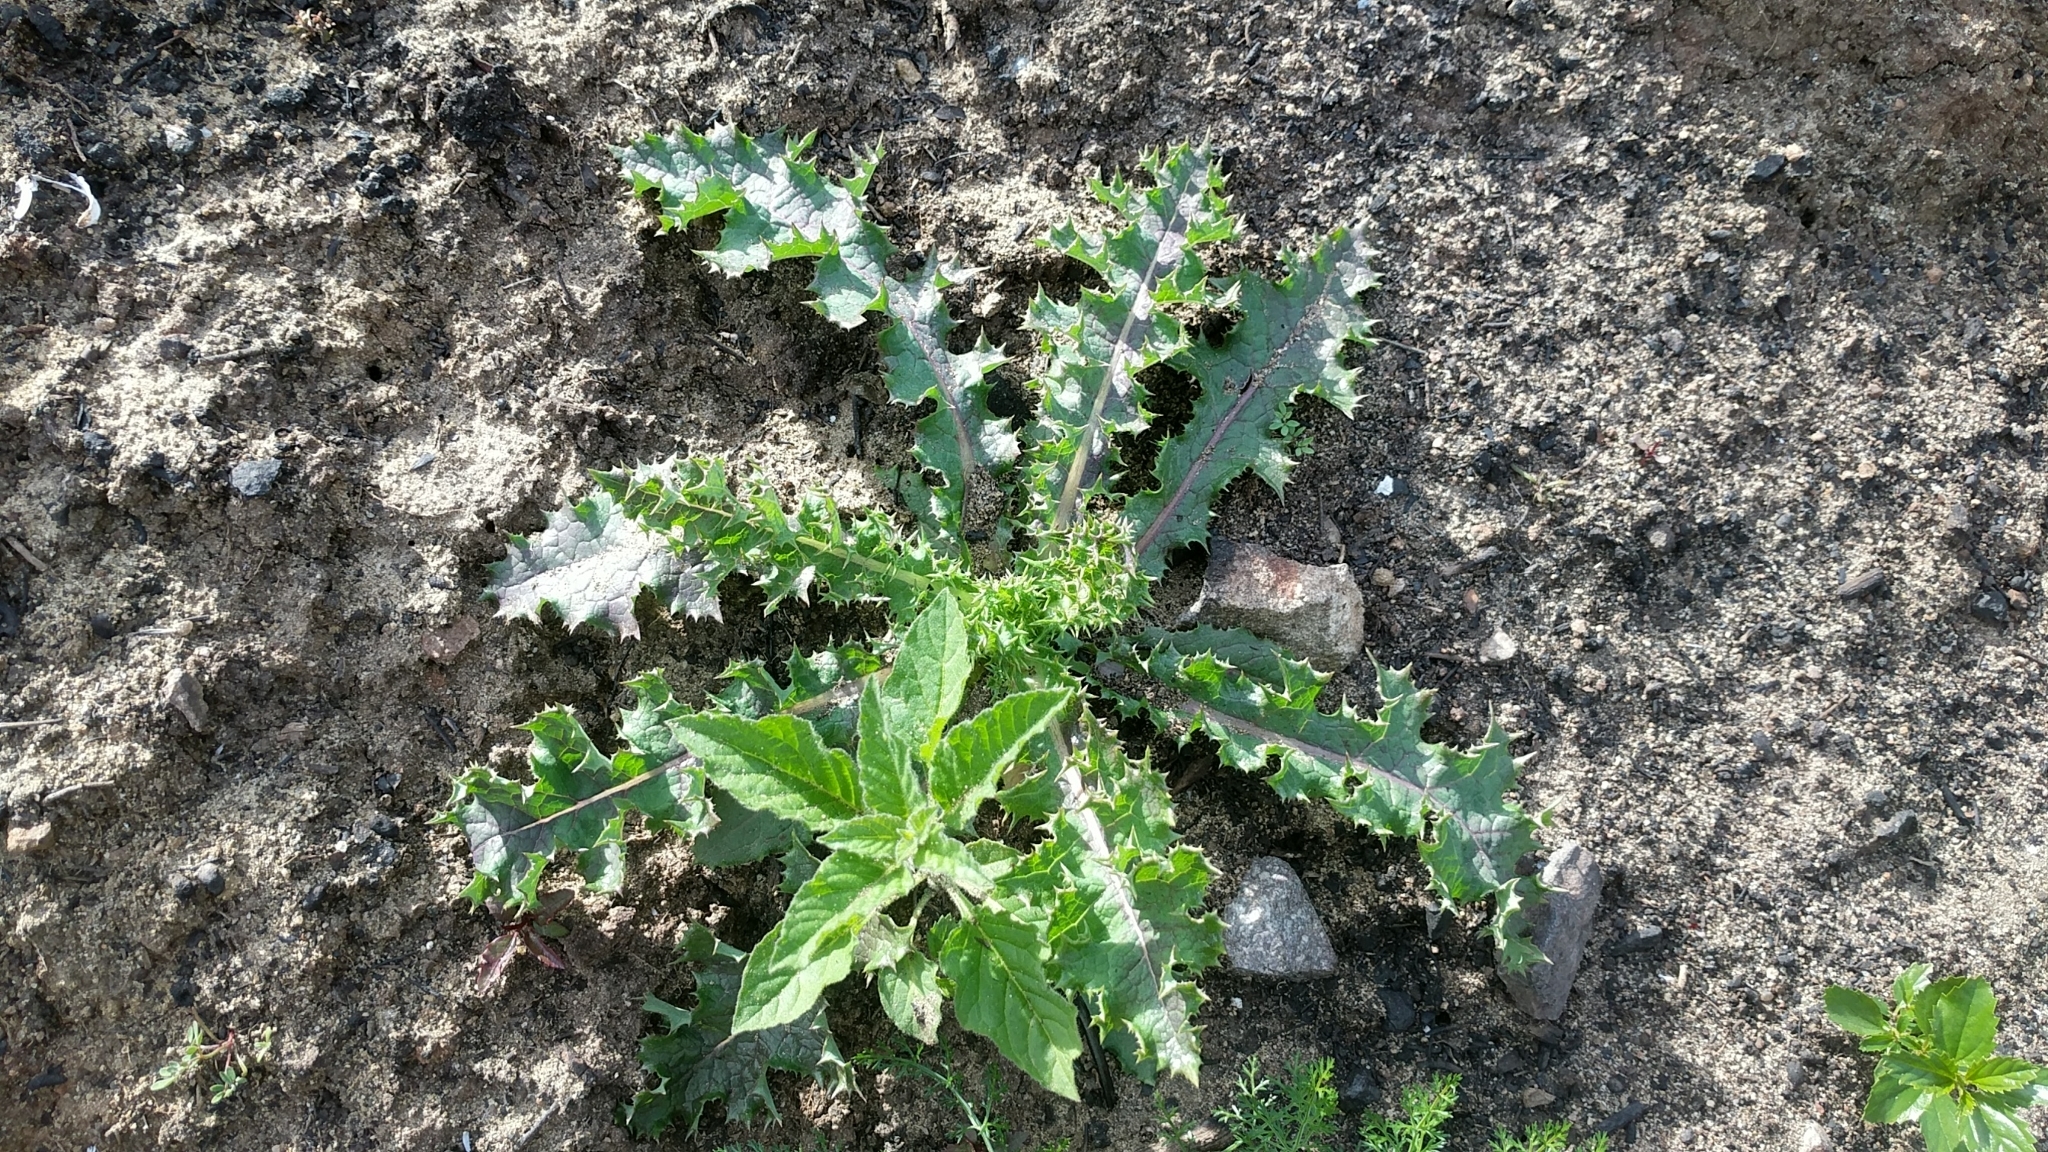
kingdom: Plantae
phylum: Tracheophyta
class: Magnoliopsida
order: Asterales
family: Asteraceae
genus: Sonchus
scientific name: Sonchus asper
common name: Prickly sow-thistle
